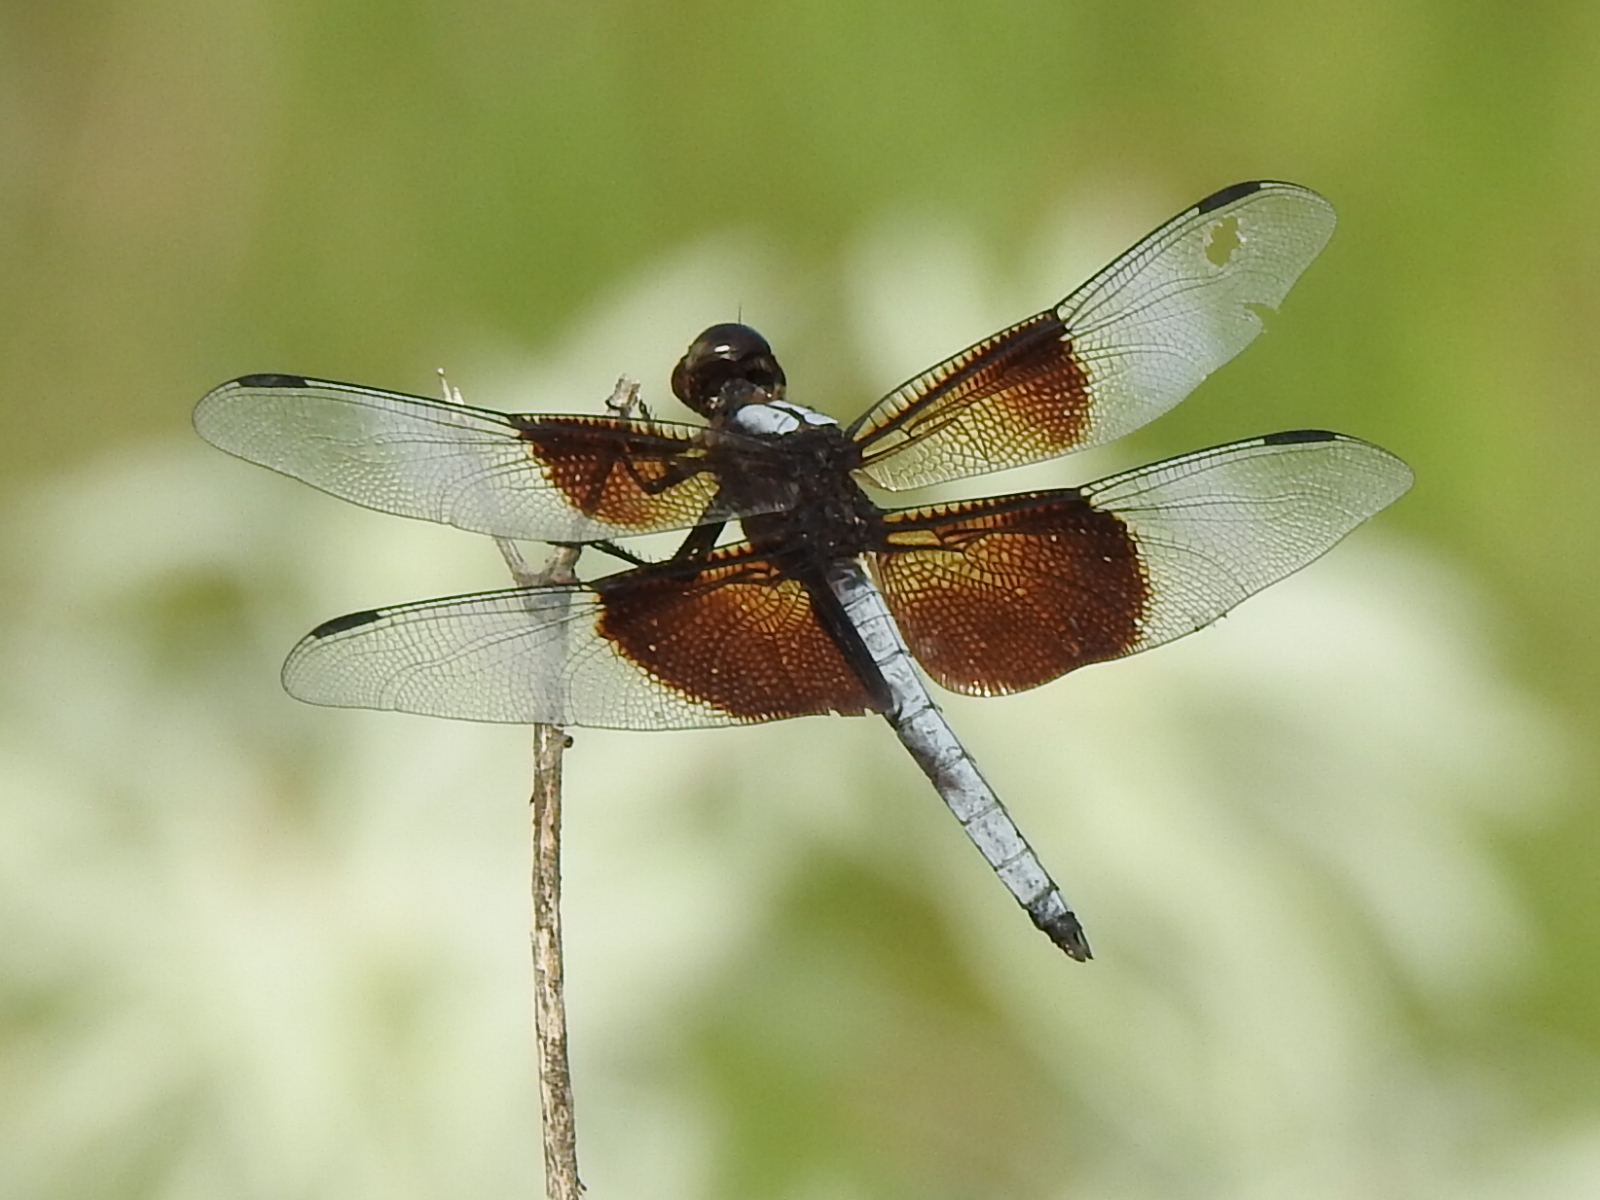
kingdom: Animalia
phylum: Arthropoda
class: Insecta
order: Odonata
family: Libellulidae
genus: Libellula
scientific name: Libellula luctuosa
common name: Widow skimmer
